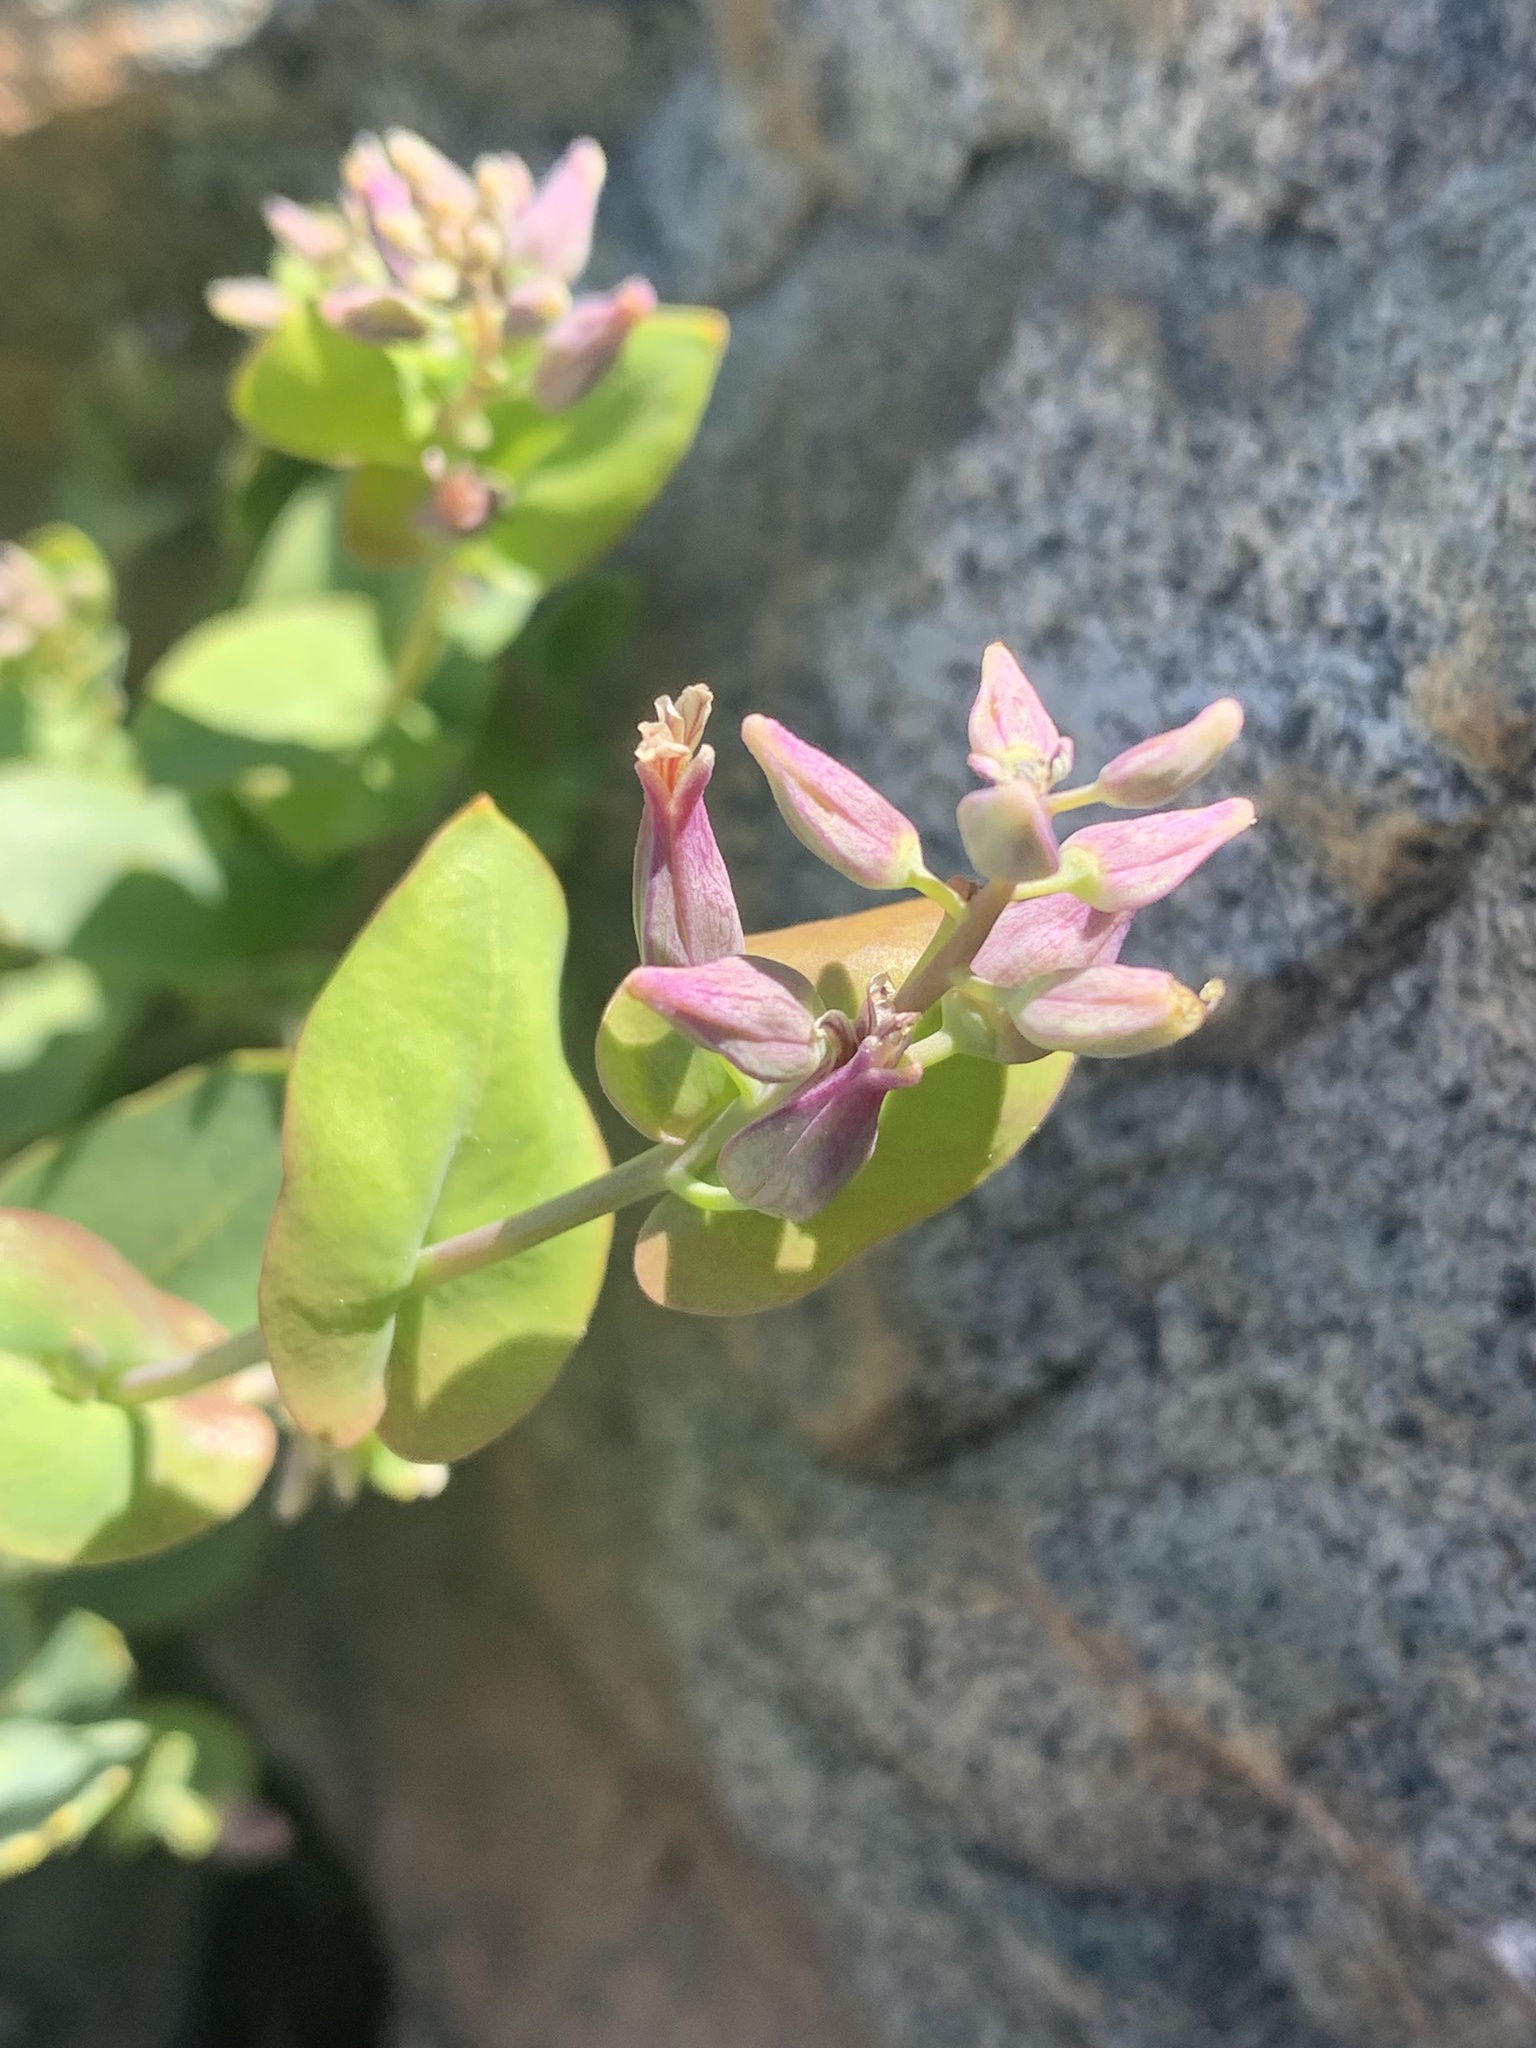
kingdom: Plantae
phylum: Tracheophyta
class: Magnoliopsida
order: Brassicales
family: Brassicaceae
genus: Streptanthus
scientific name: Streptanthus tortuosus
